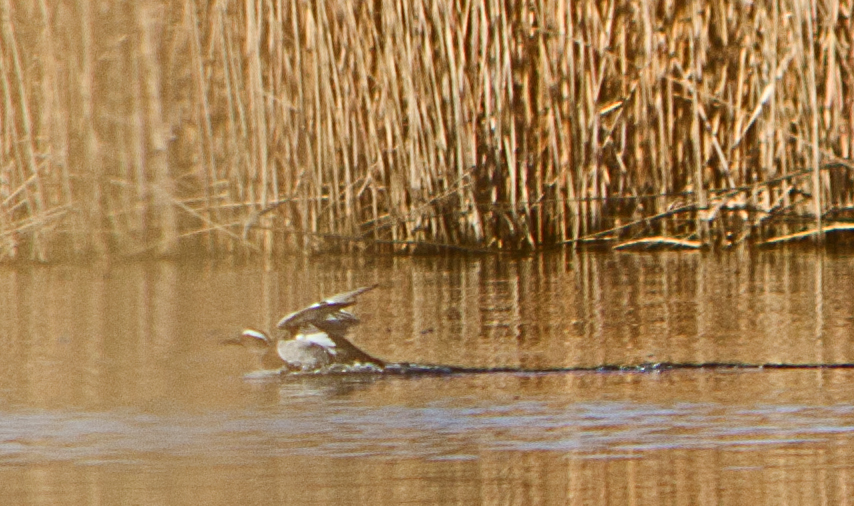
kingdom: Animalia
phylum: Chordata
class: Aves
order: Anseriformes
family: Anatidae
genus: Spatula
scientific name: Spatula querquedula
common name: Garganey
